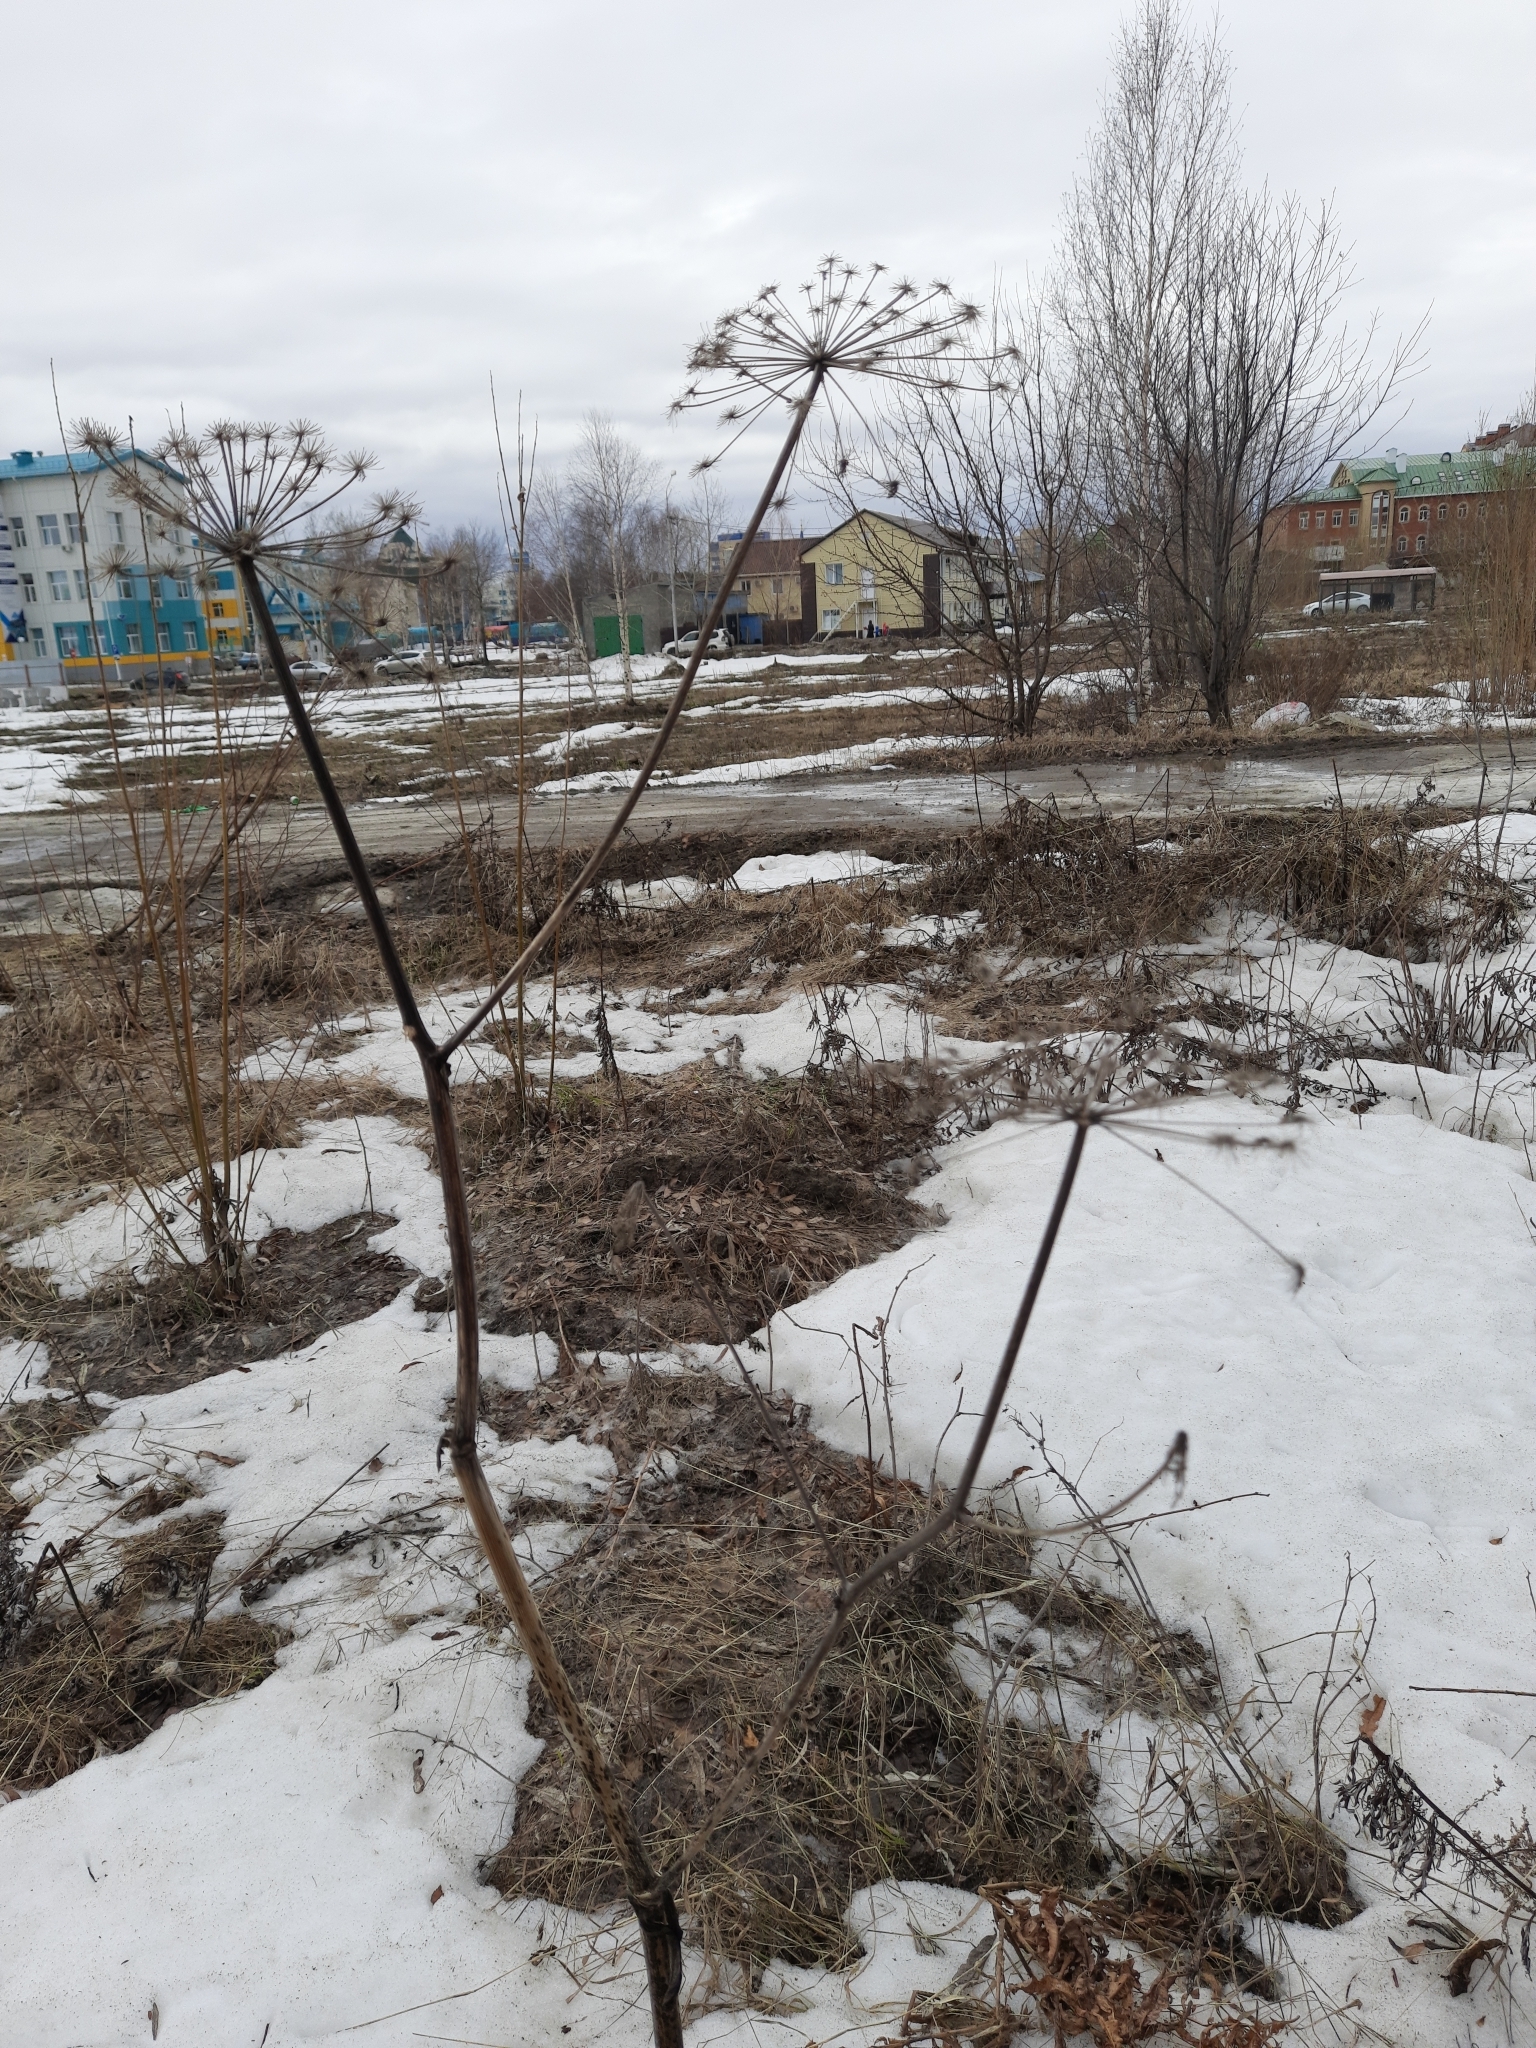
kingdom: Plantae
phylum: Tracheophyta
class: Magnoliopsida
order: Apiales
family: Apiaceae
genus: Angelica
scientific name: Angelica decurrens
